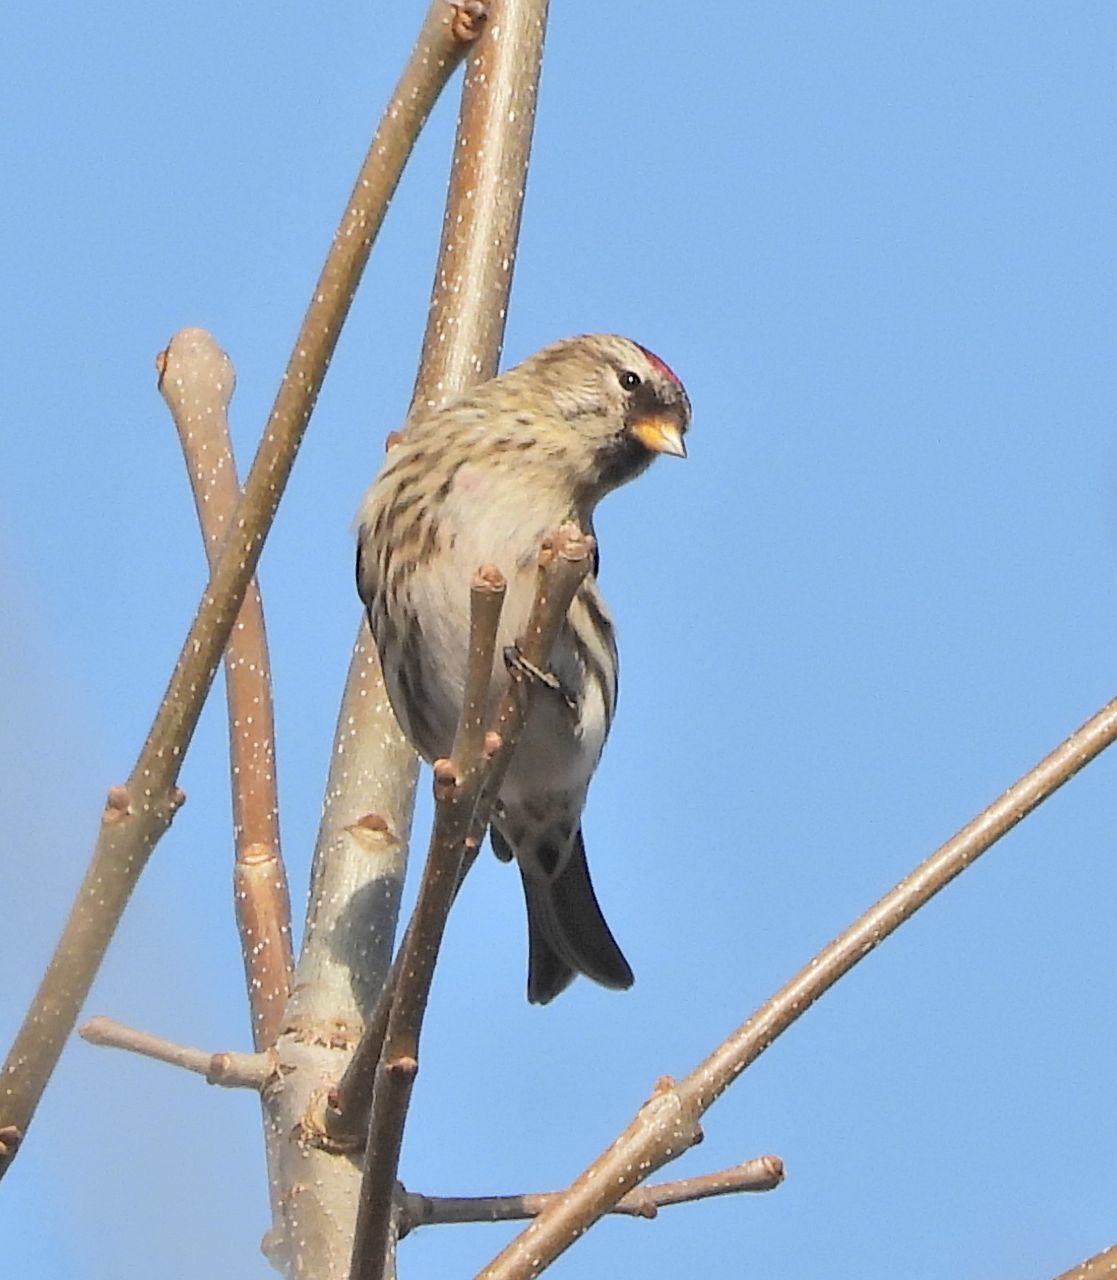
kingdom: Animalia
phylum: Chordata
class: Aves
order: Passeriformes
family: Fringillidae
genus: Acanthis
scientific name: Acanthis flammea
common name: Common redpoll
